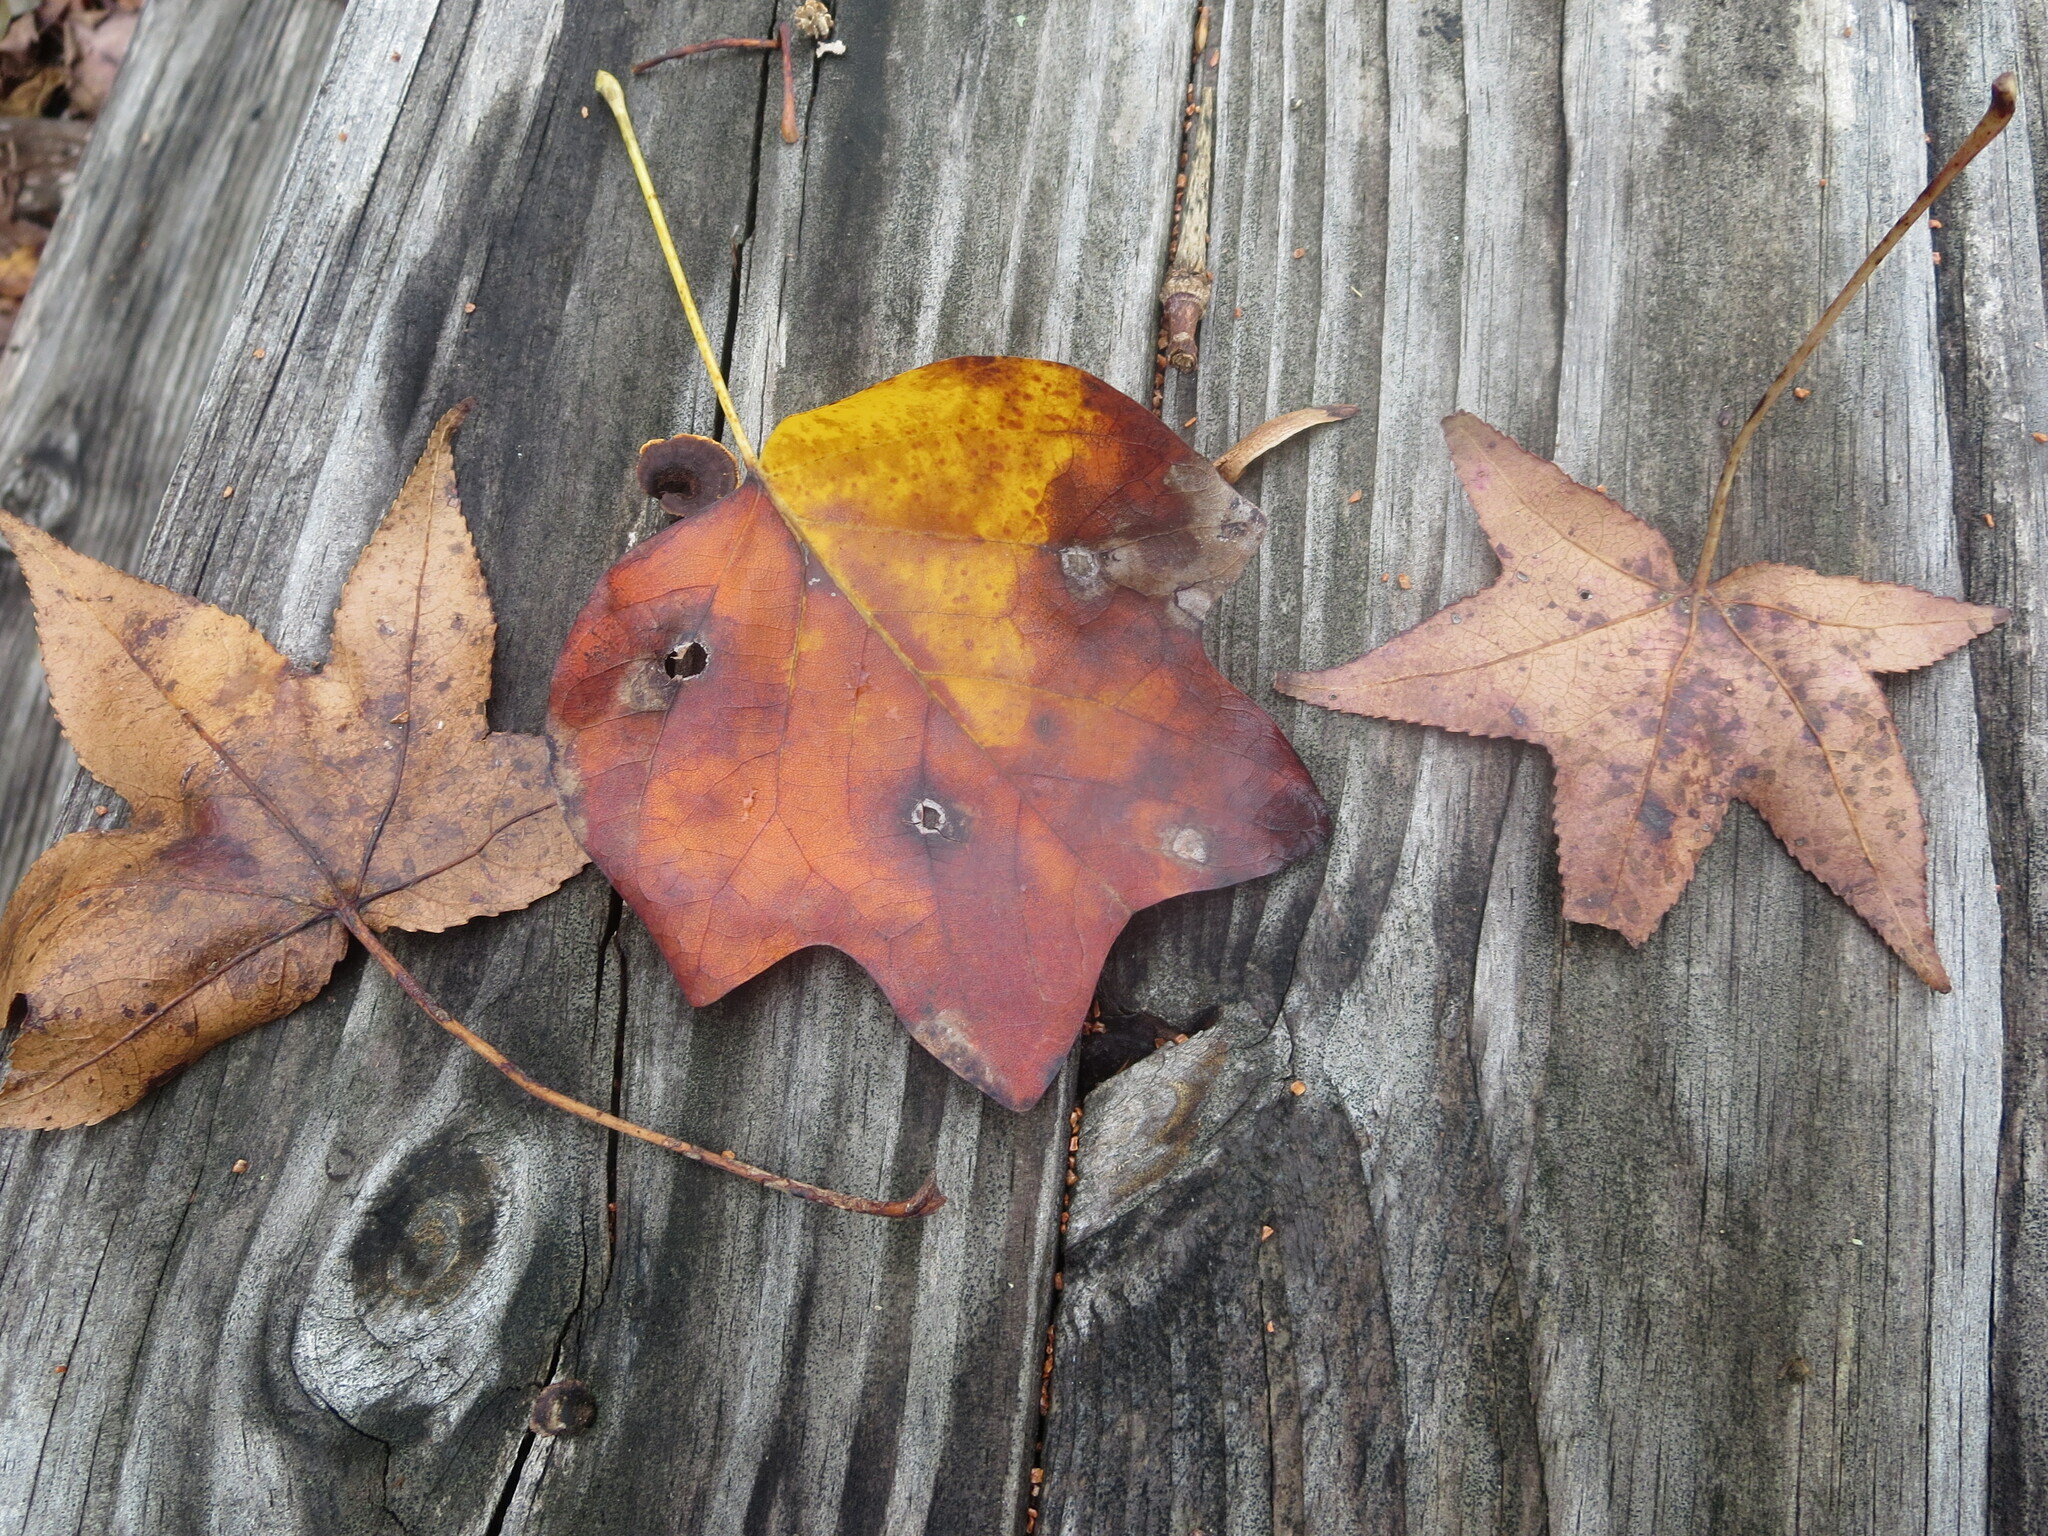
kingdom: Plantae
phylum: Tracheophyta
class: Magnoliopsida
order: Saxifragales
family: Altingiaceae
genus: Liquidambar
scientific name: Liquidambar styraciflua
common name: Sweet gum
